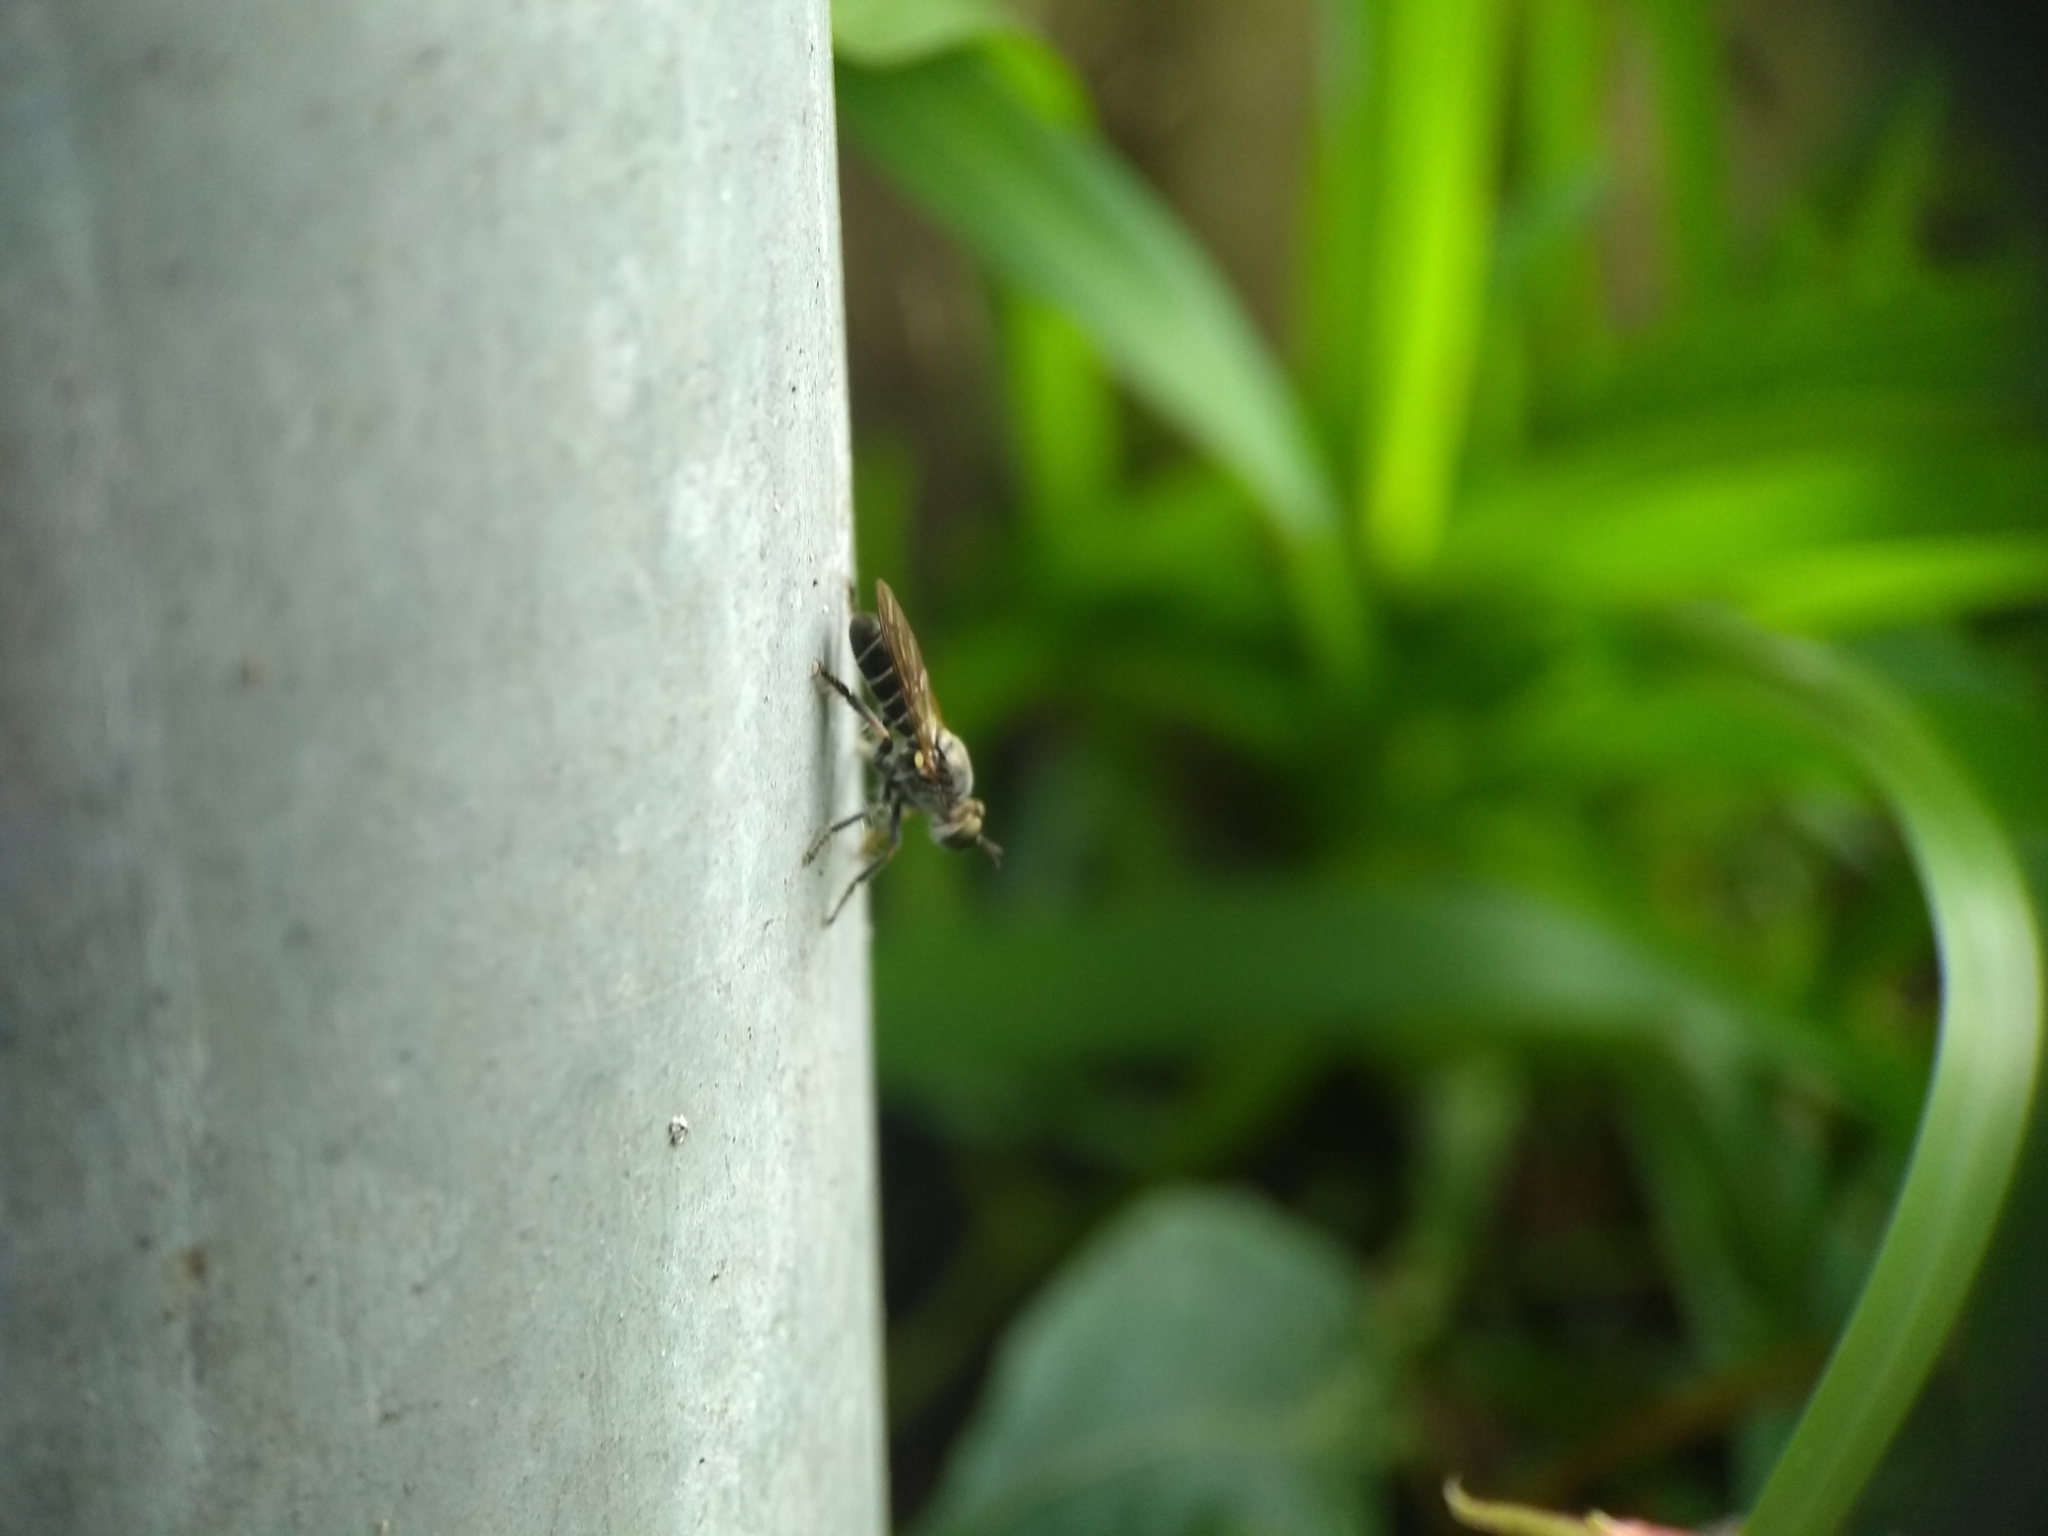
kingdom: Animalia
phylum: Arthropoda
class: Insecta
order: Diptera
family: Asilidae
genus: Atomosia
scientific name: Atomosia puella
